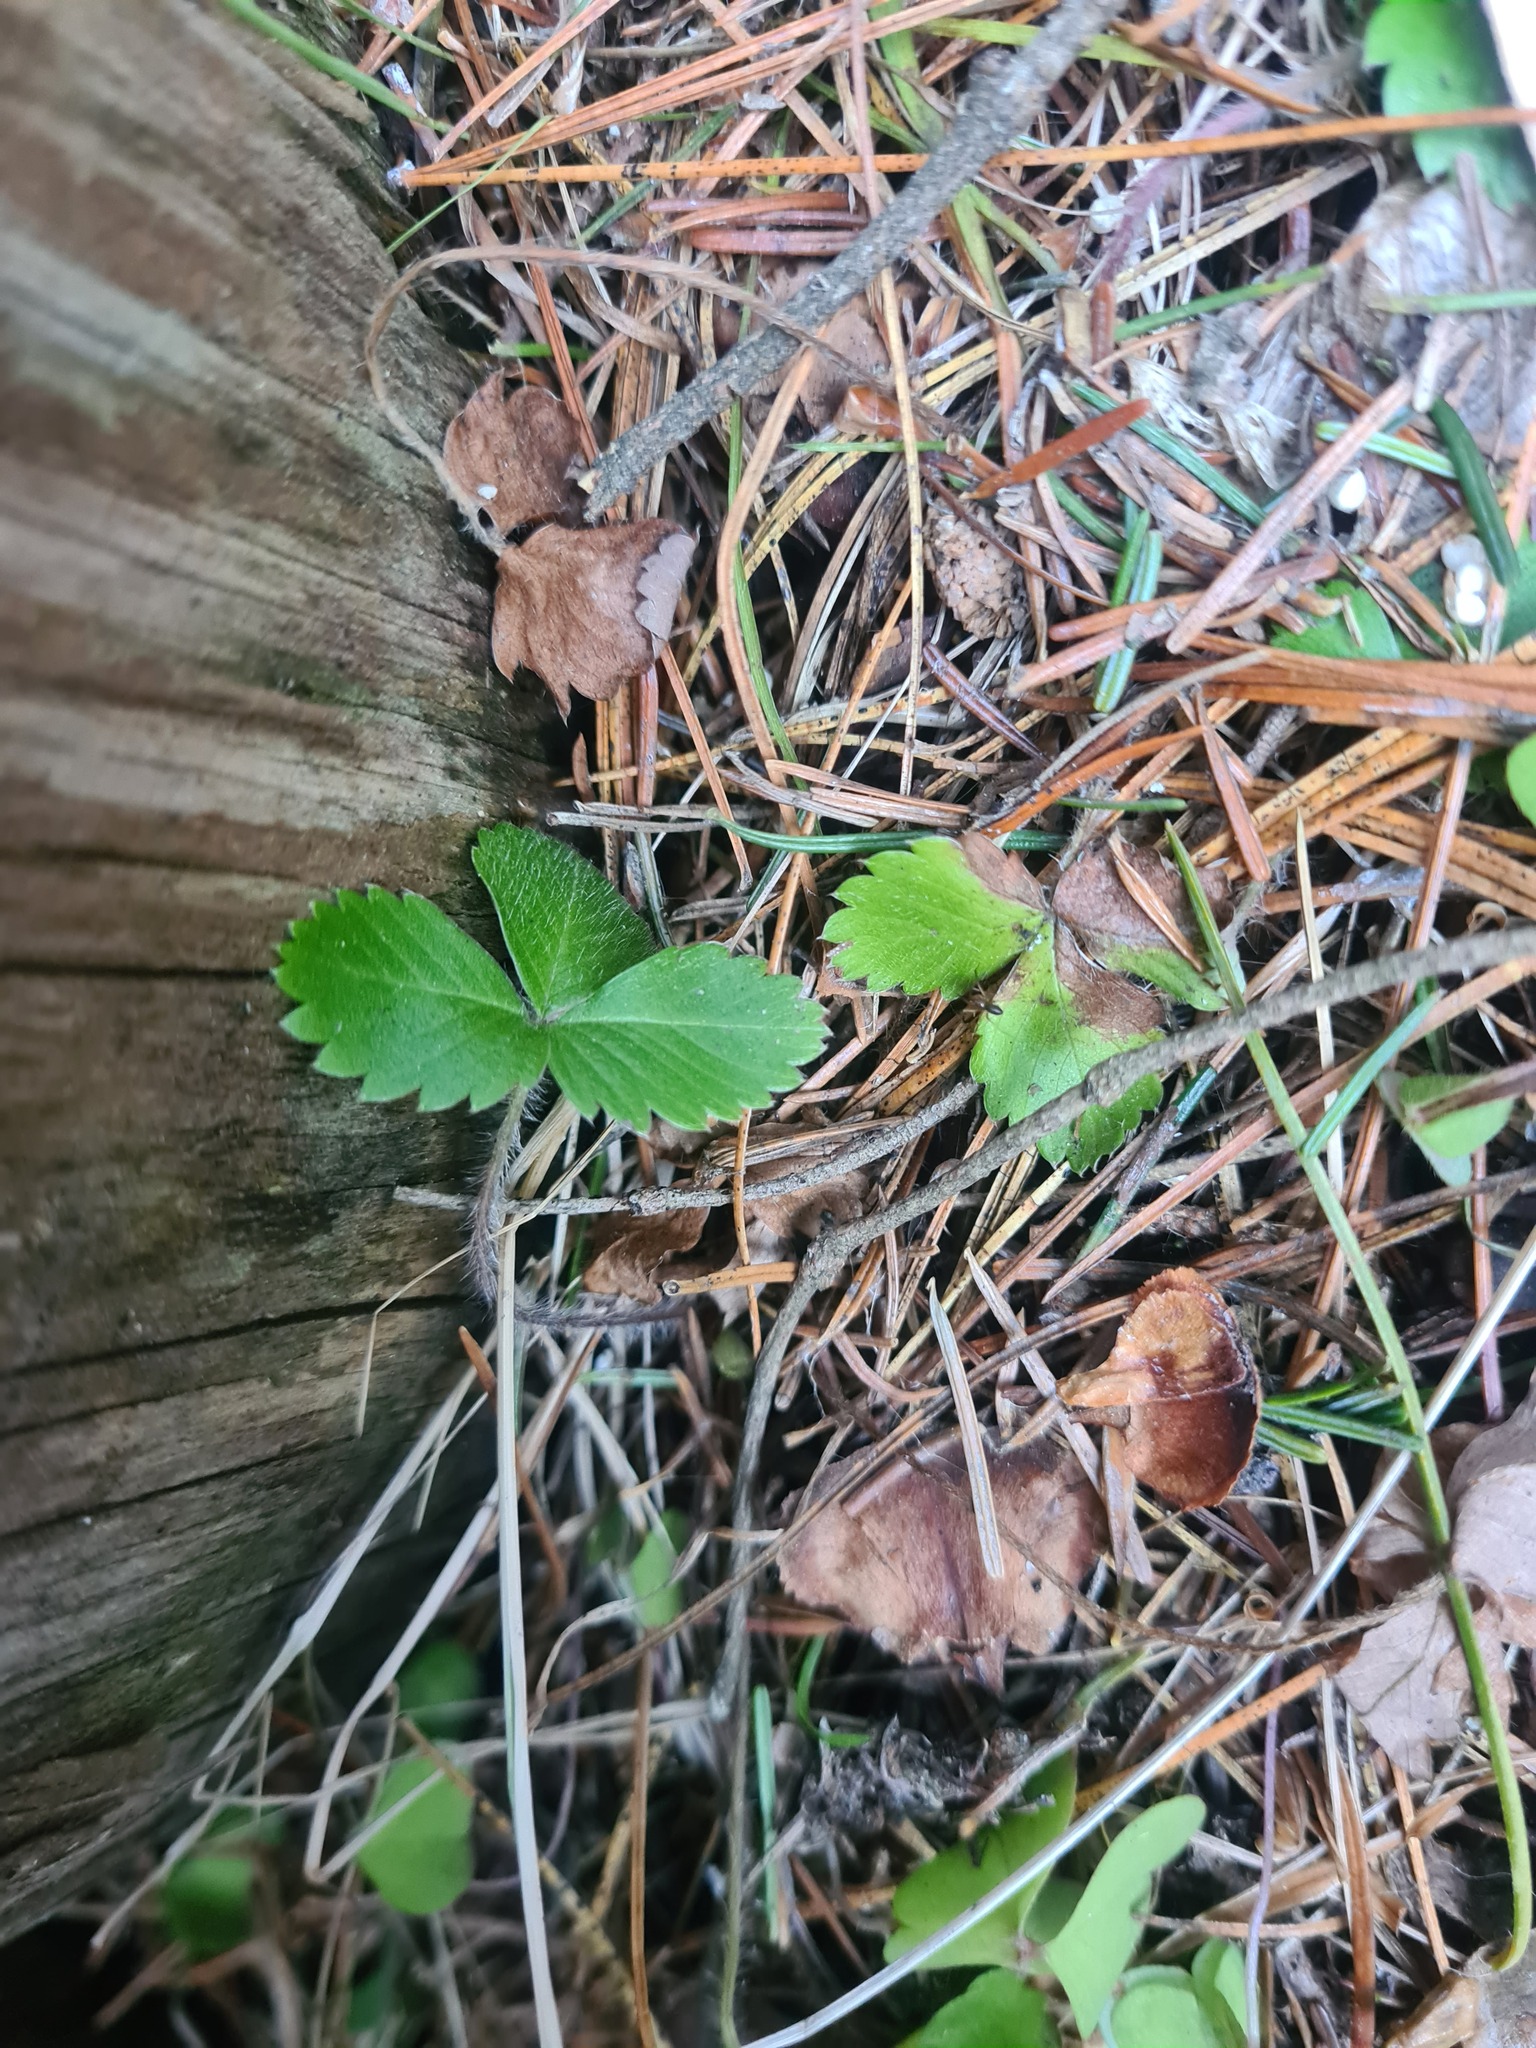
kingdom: Plantae
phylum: Tracheophyta
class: Magnoliopsida
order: Rosales
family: Rosaceae
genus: Fragaria
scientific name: Fragaria vesca
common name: Wild strawberry
